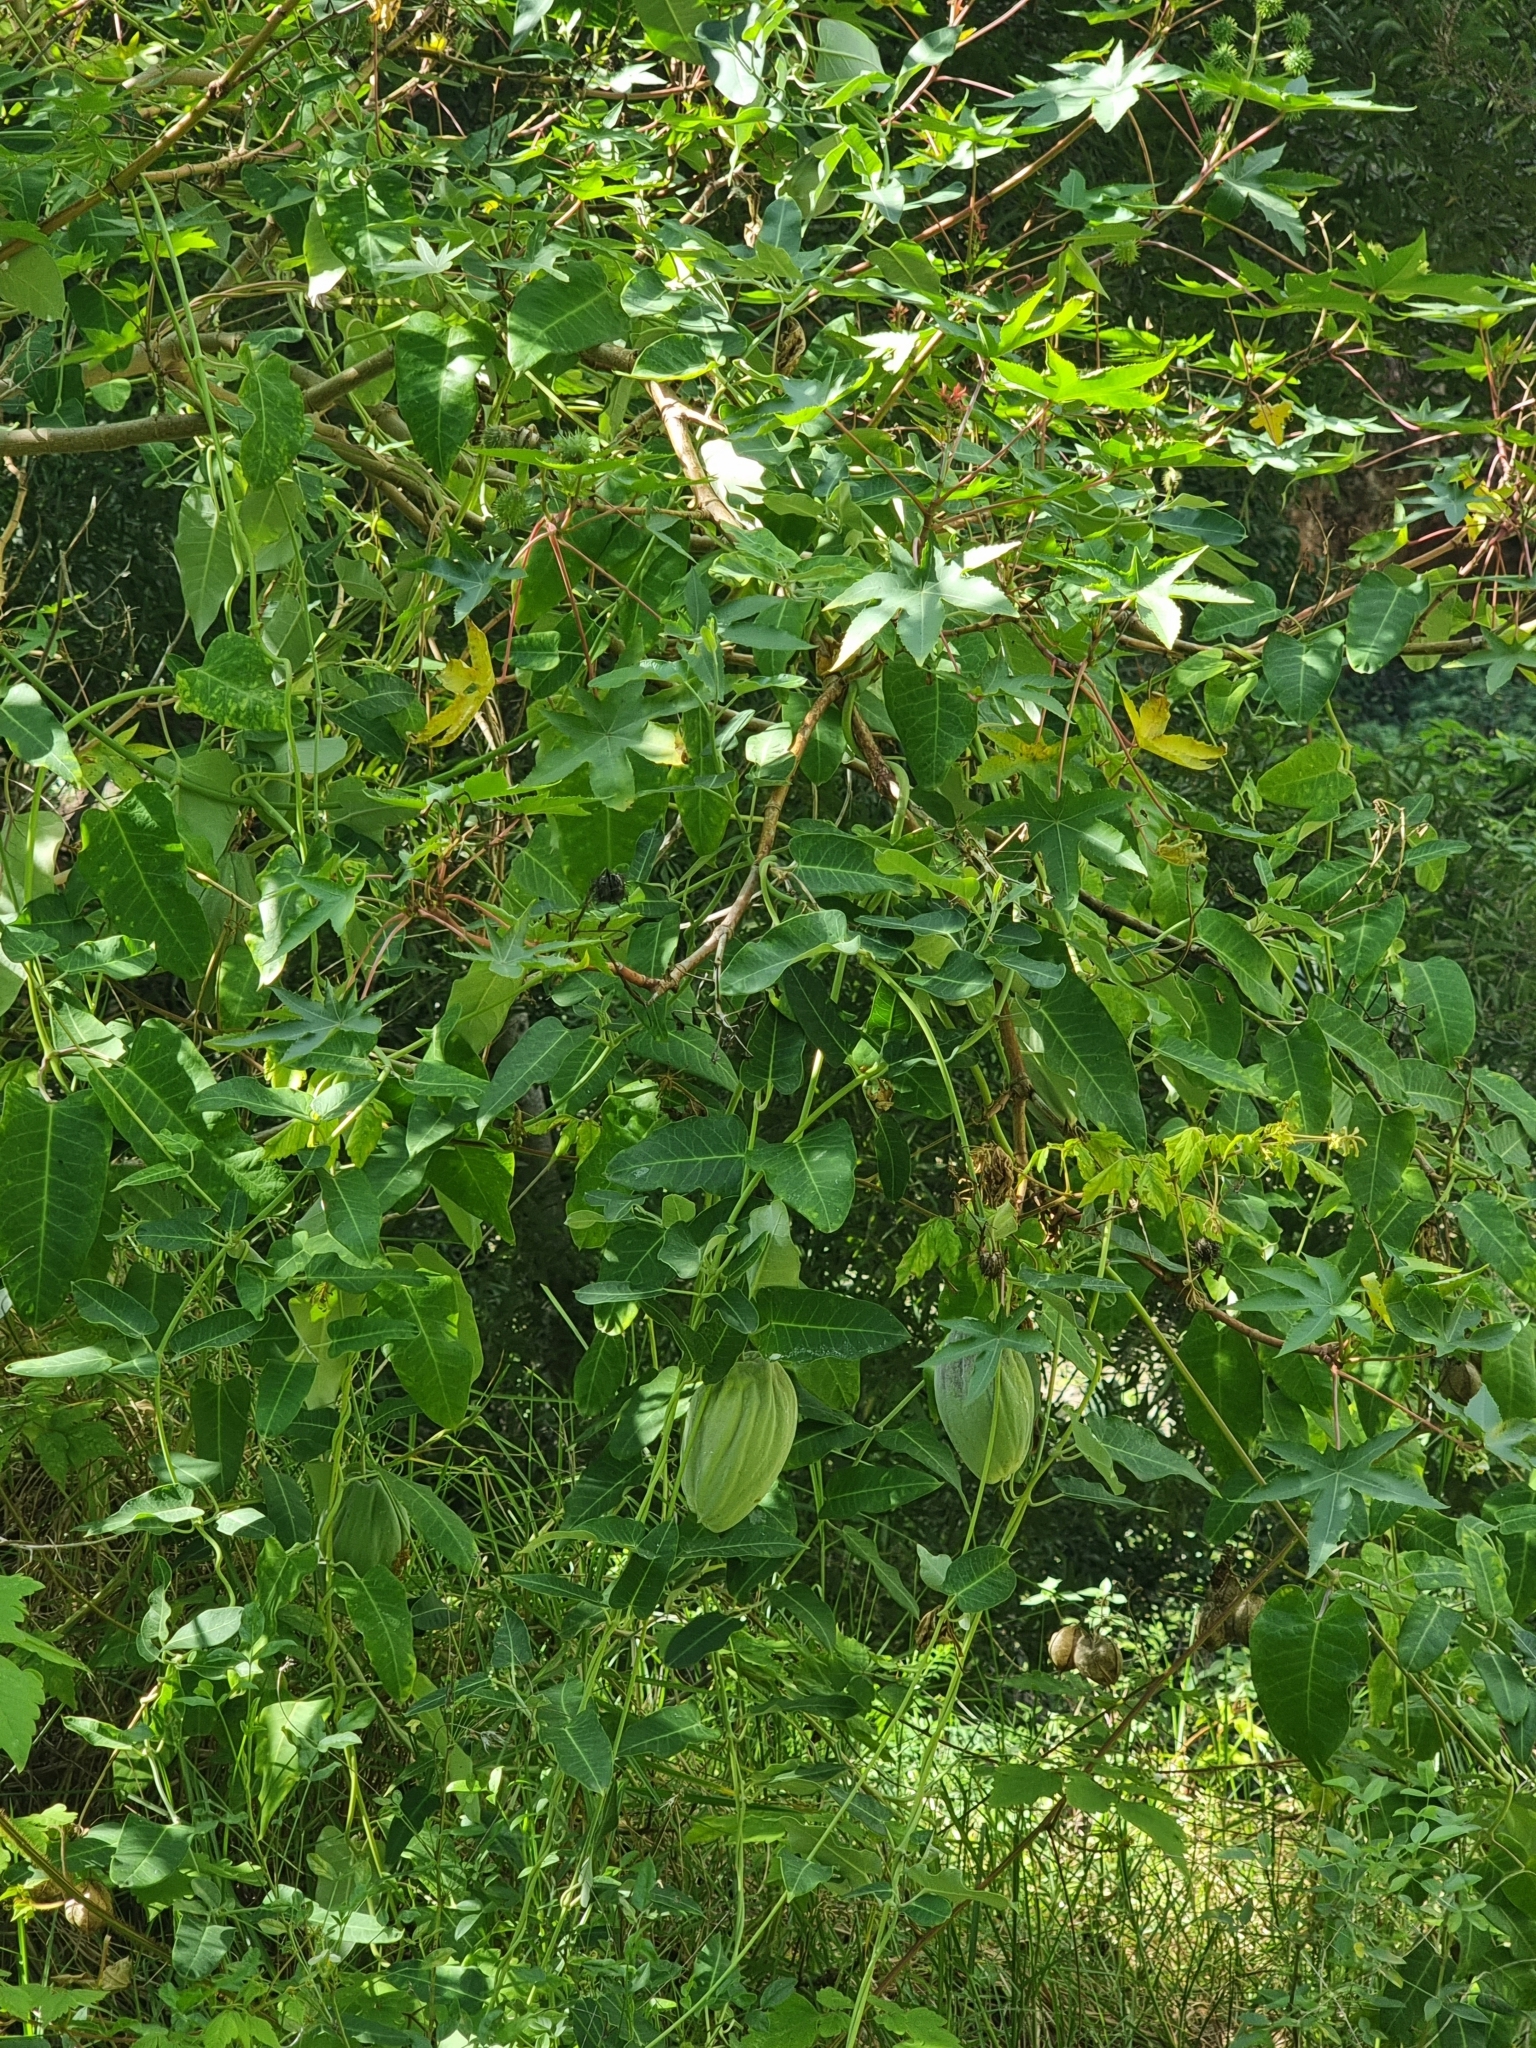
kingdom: Plantae
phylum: Tracheophyta
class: Magnoliopsida
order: Gentianales
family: Apocynaceae
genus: Araujia
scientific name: Araujia sericifera
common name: White bladderflower
